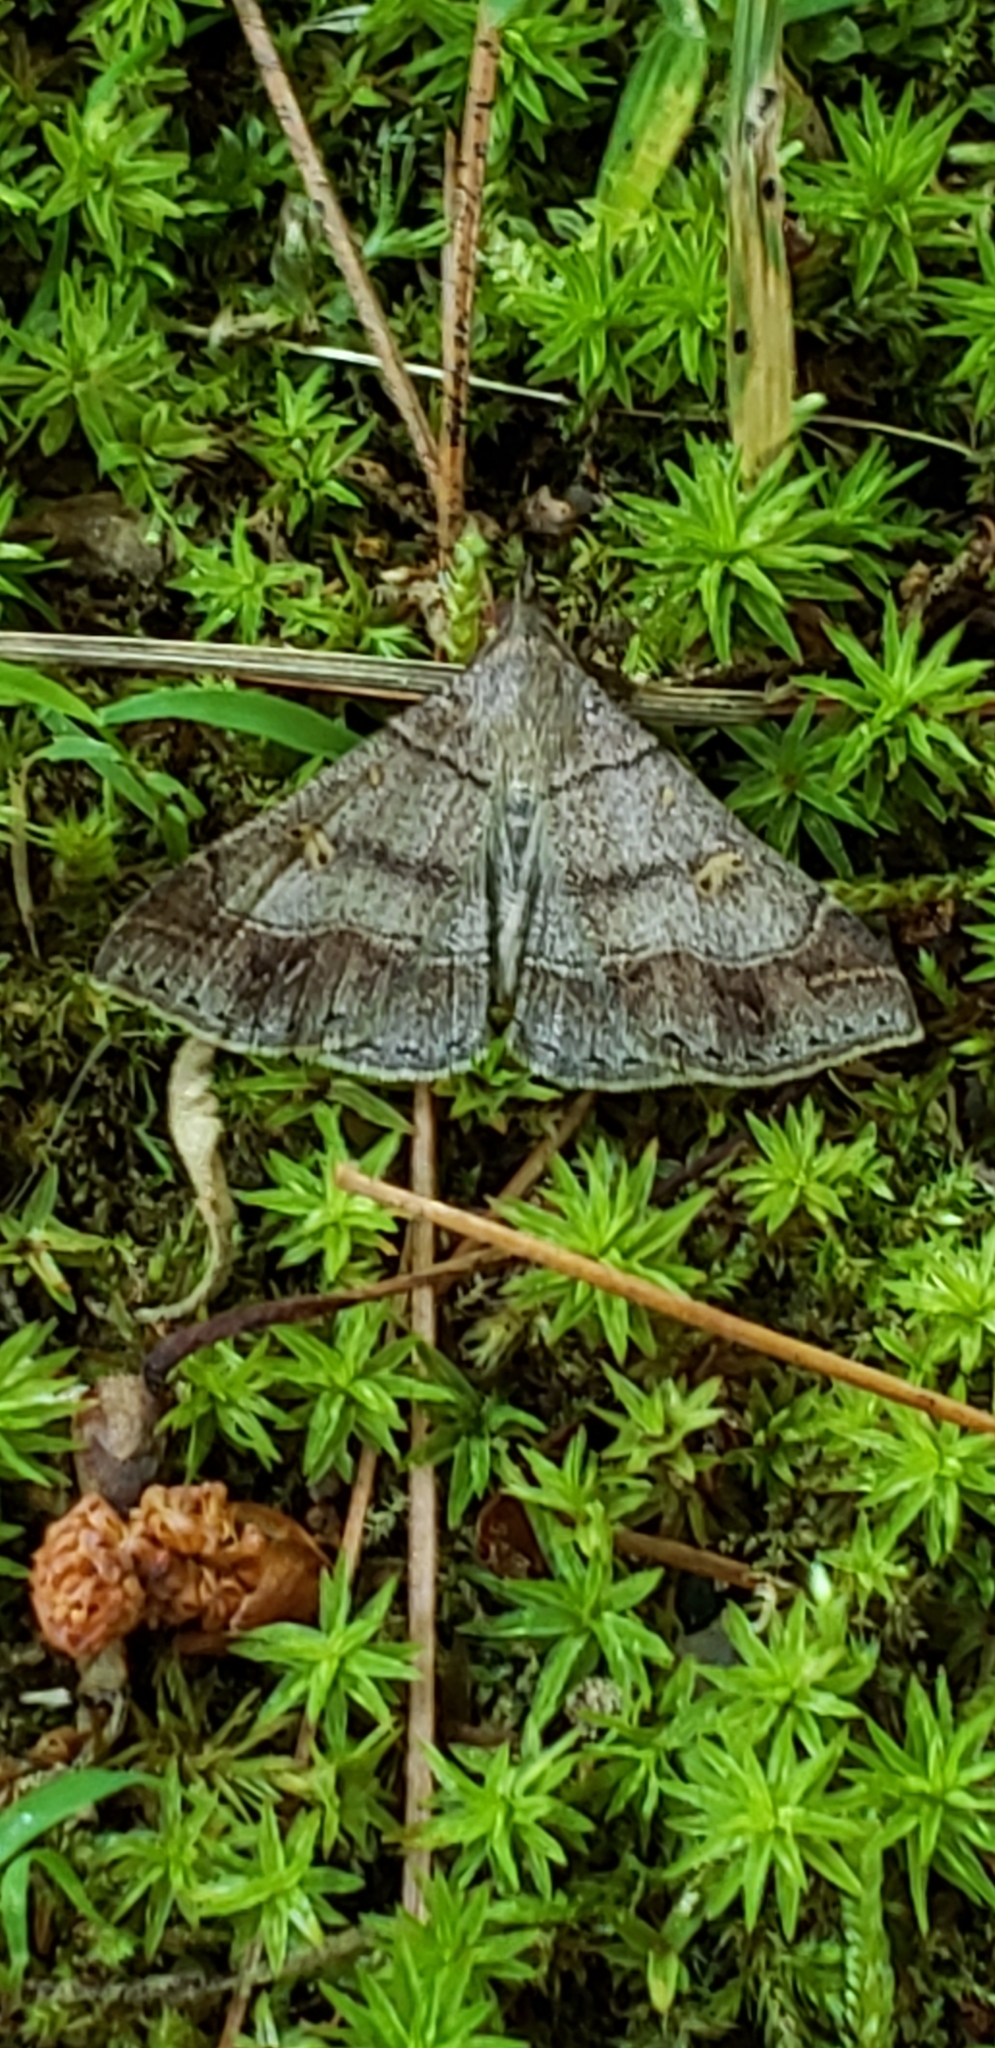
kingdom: Animalia
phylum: Arthropoda
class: Insecta
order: Lepidoptera
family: Erebidae
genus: Renia
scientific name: Renia flavipunctalis
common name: Yellow-spotted renia moth
